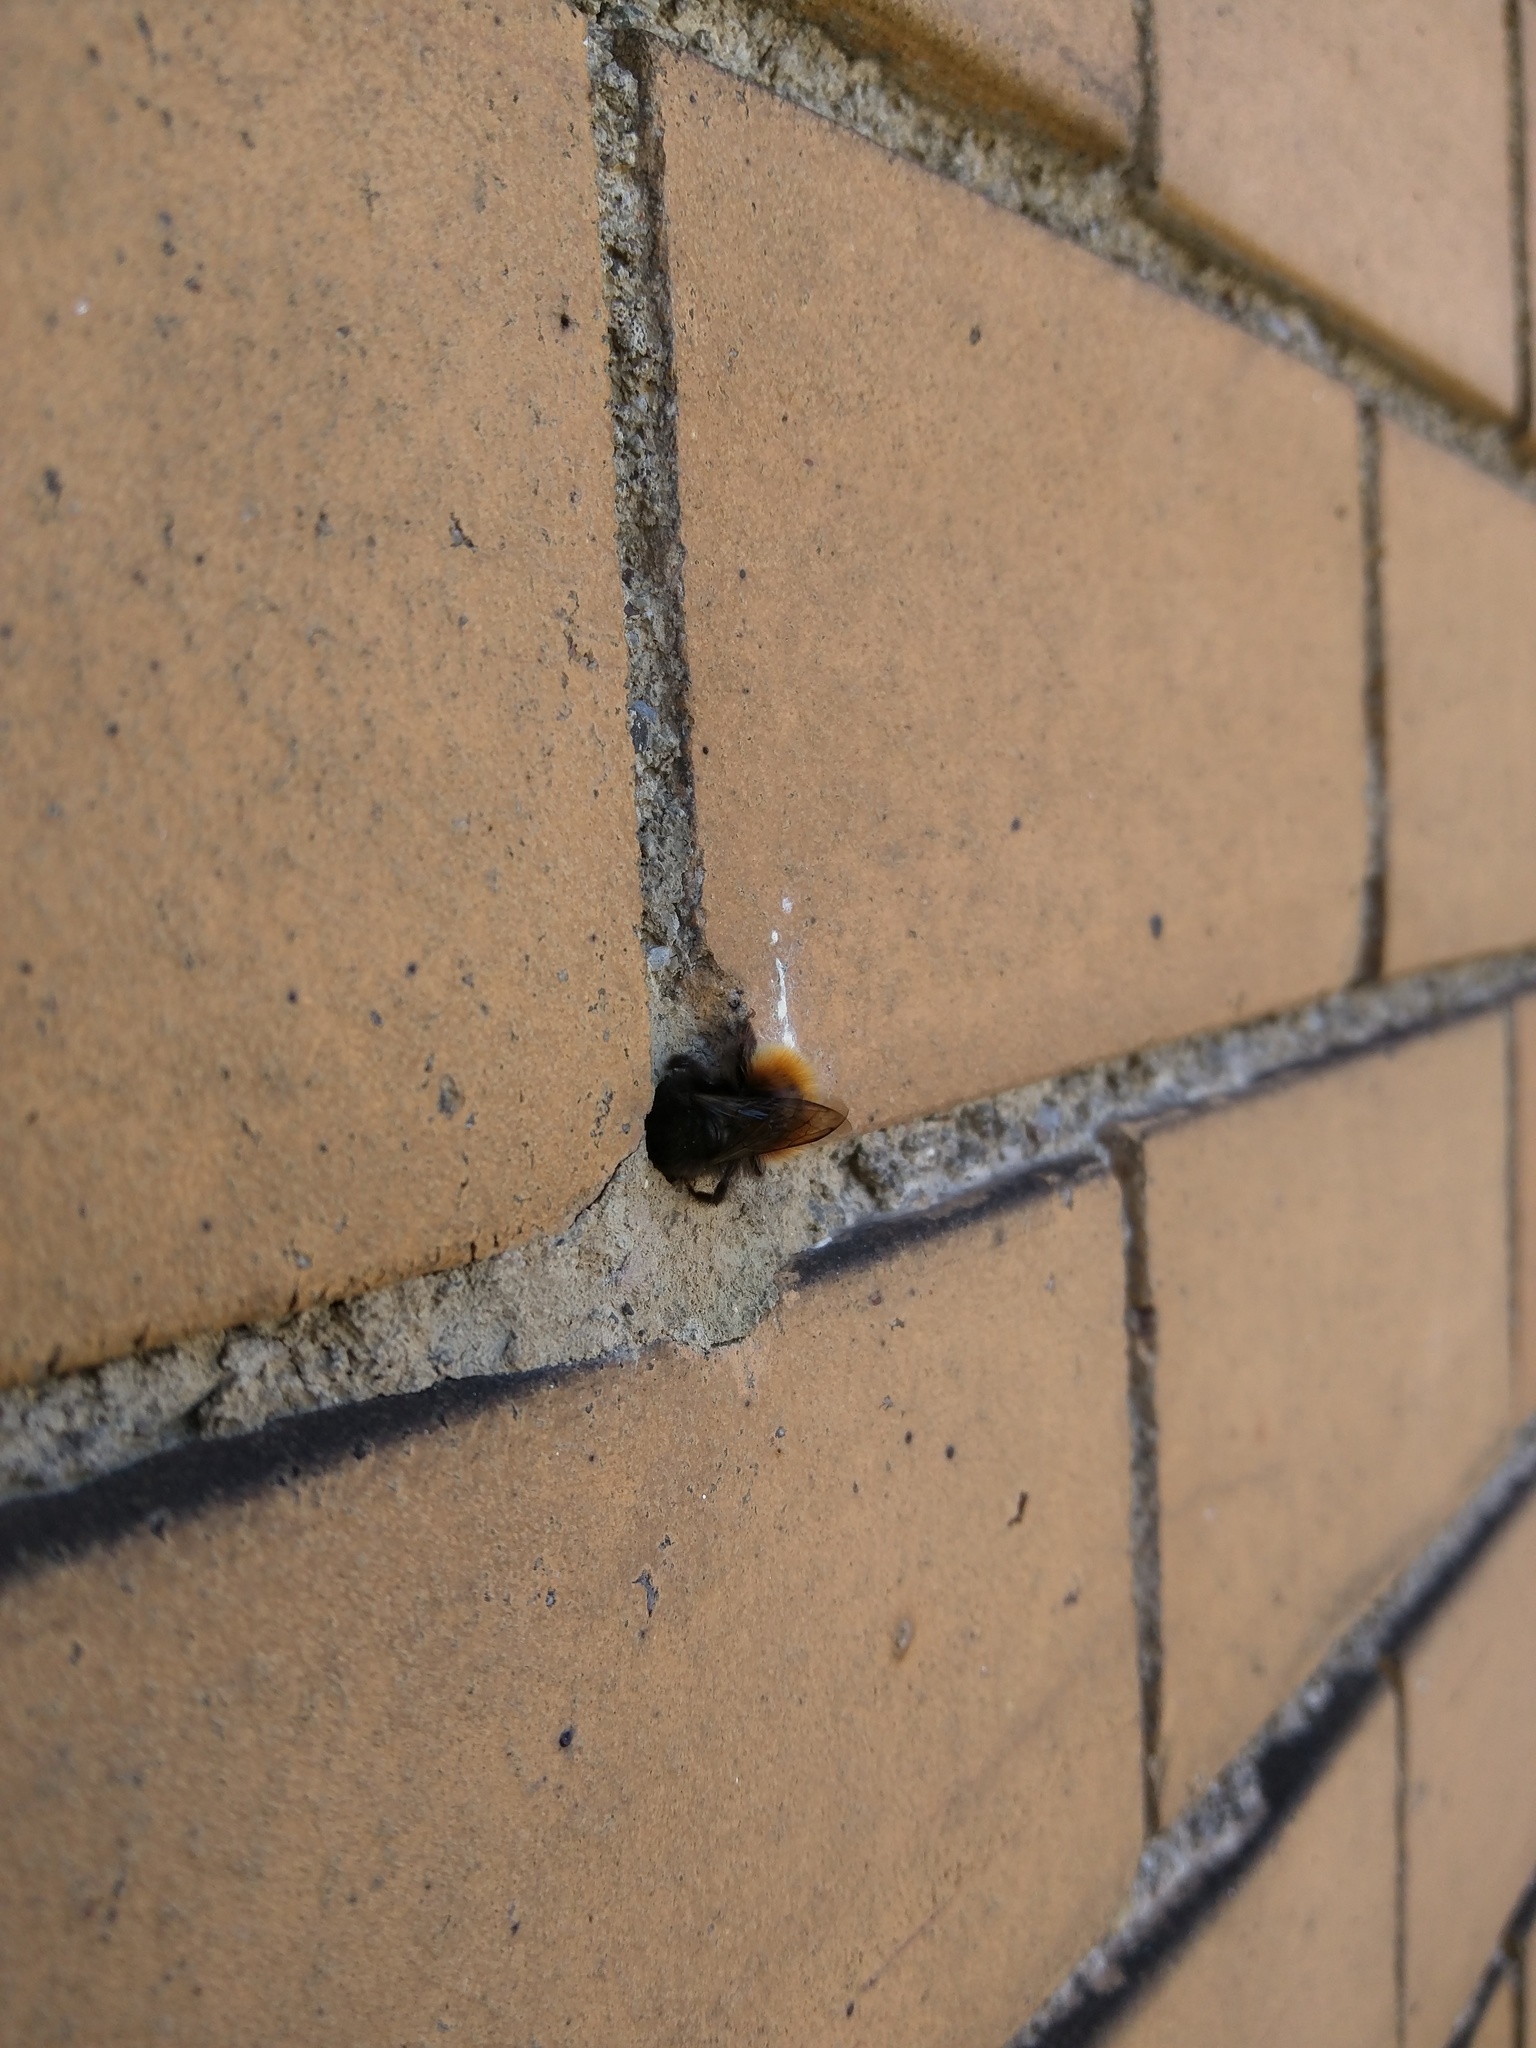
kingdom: Animalia
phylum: Arthropoda
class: Insecta
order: Hymenoptera
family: Megachilidae
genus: Osmia
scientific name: Osmia cornuta
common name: Mason bee
